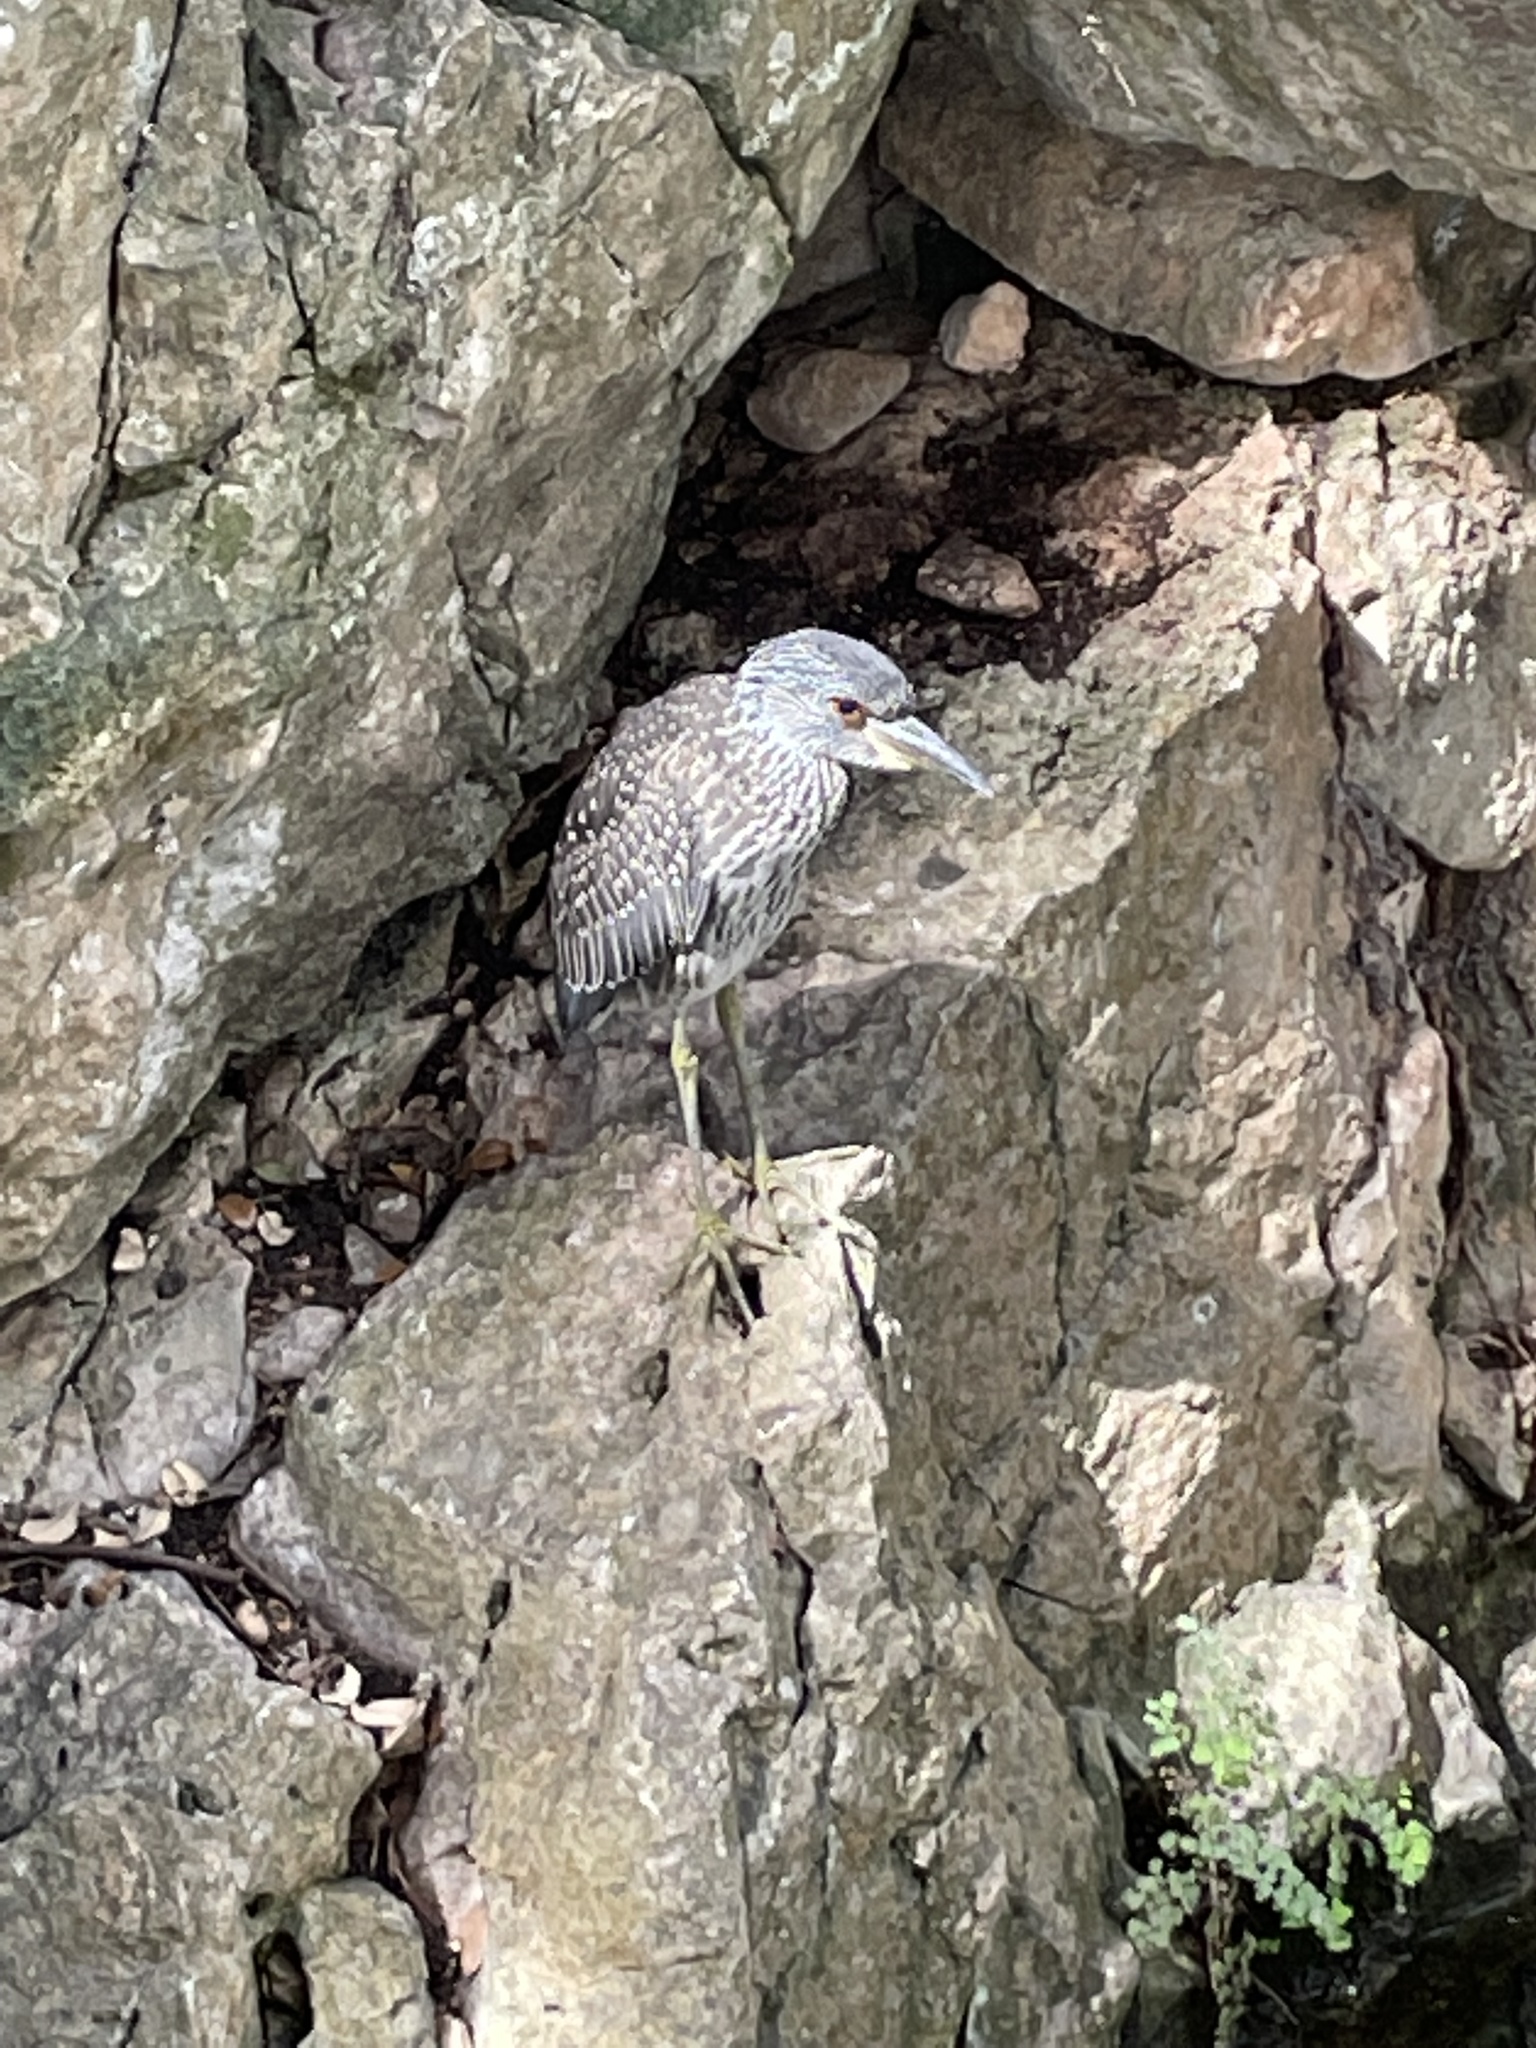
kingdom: Animalia
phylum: Chordata
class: Aves
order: Pelecaniformes
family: Ardeidae
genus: Nyctanassa
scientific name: Nyctanassa violacea
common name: Yellow-crowned night heron
